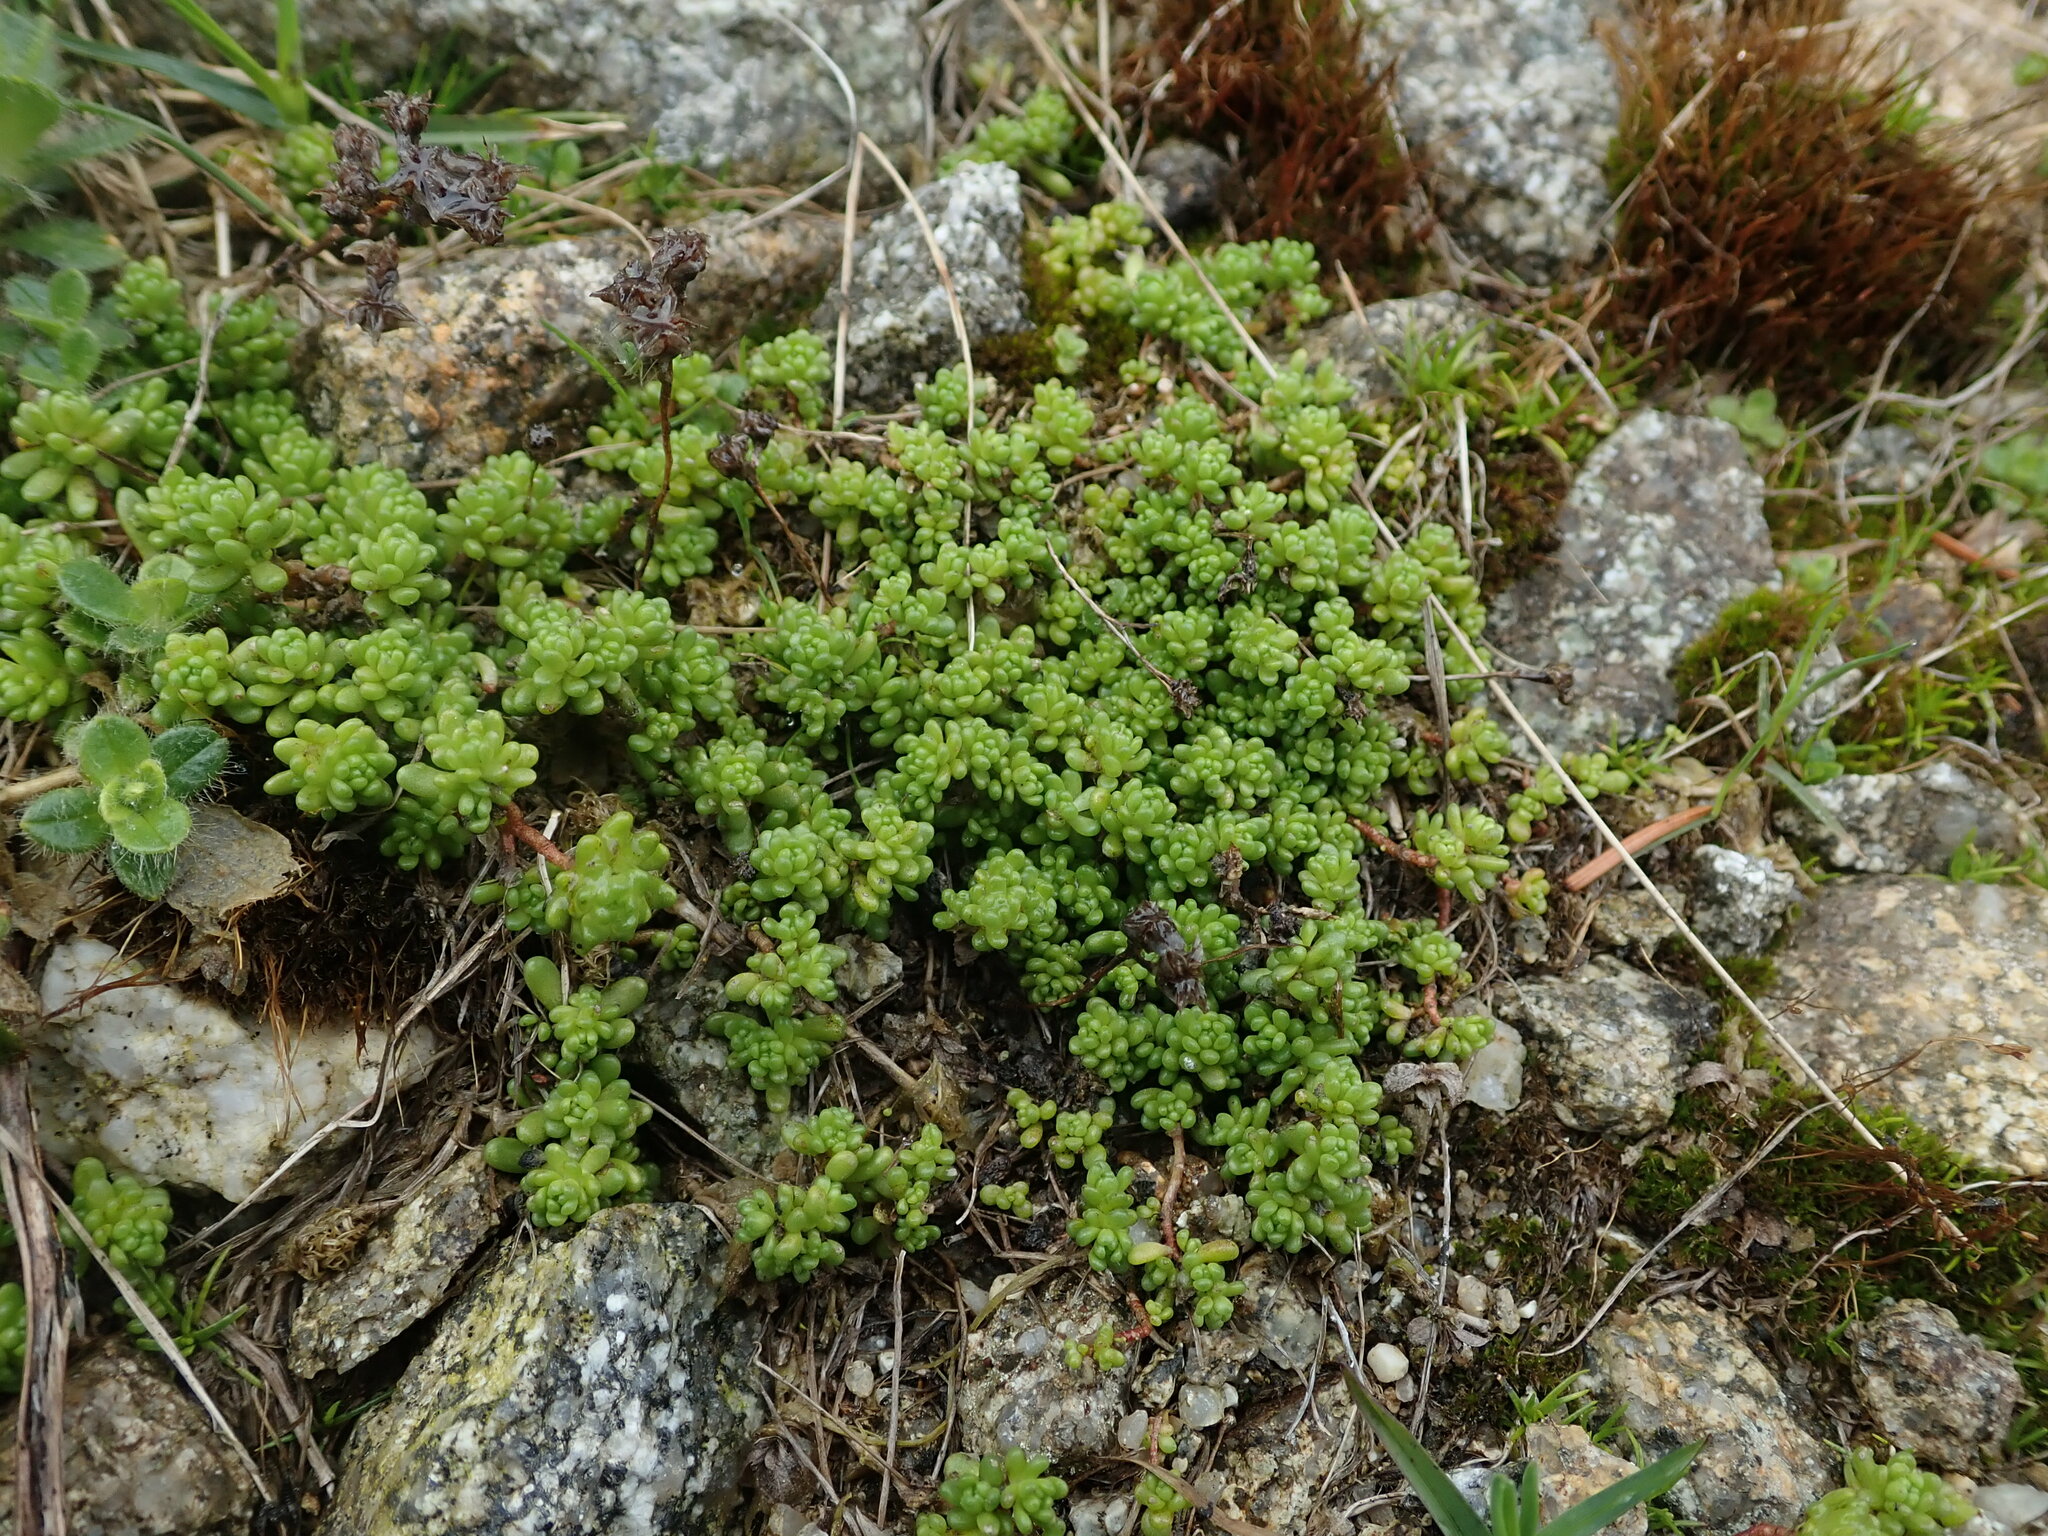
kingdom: Plantae
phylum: Tracheophyta
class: Magnoliopsida
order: Saxifragales
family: Crassulaceae
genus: Sedum
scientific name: Sedum alpestre
